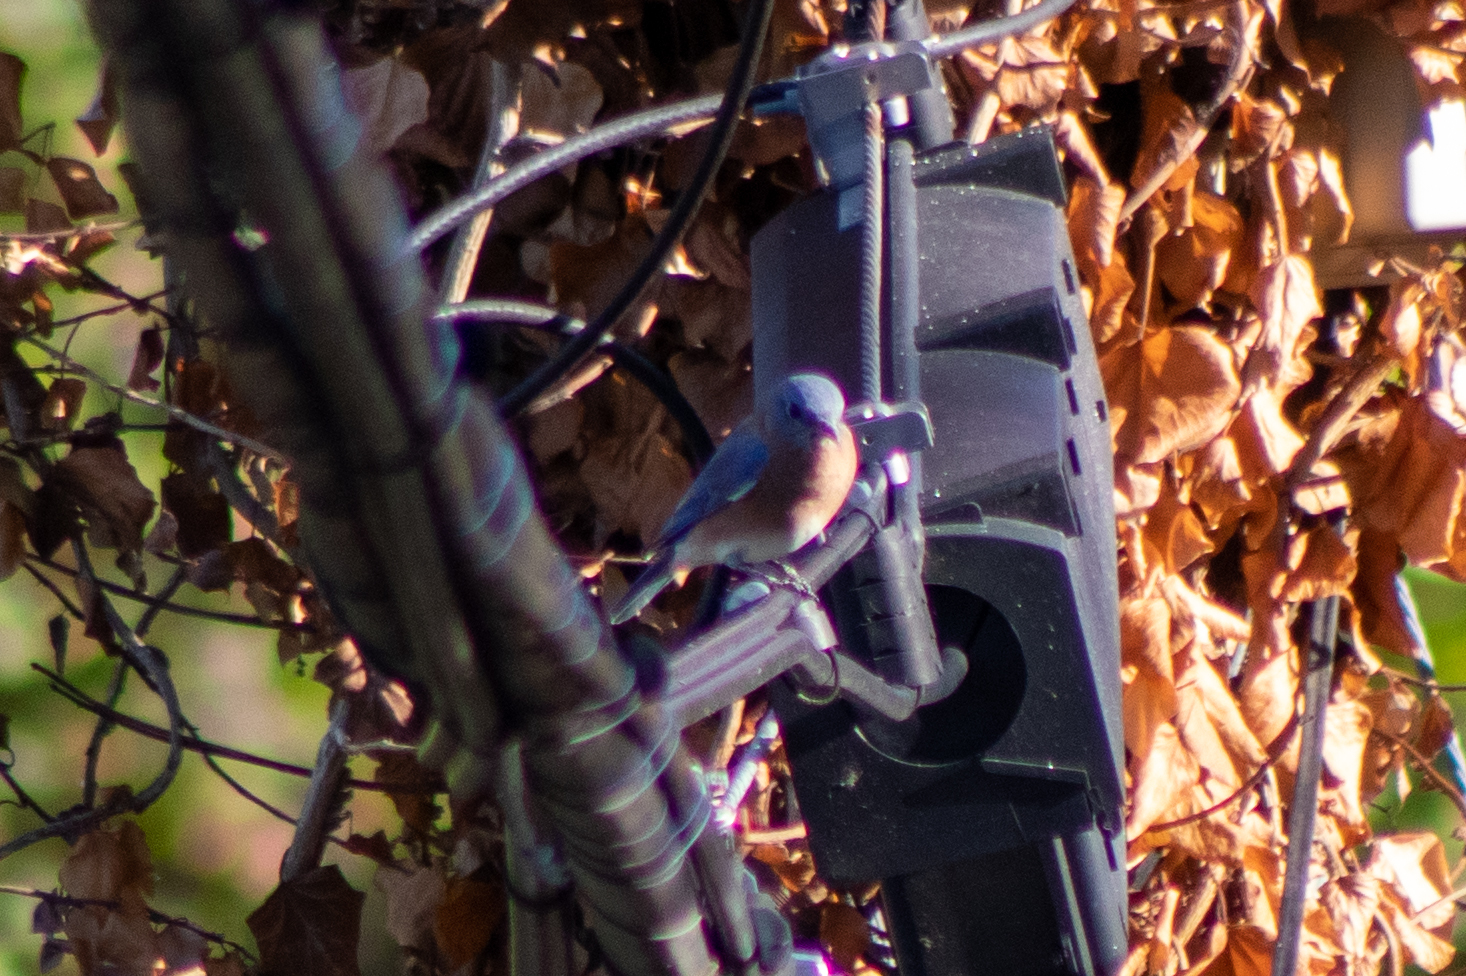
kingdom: Animalia
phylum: Chordata
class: Aves
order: Passeriformes
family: Turdidae
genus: Sialia
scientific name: Sialia sialis
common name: Eastern bluebird
